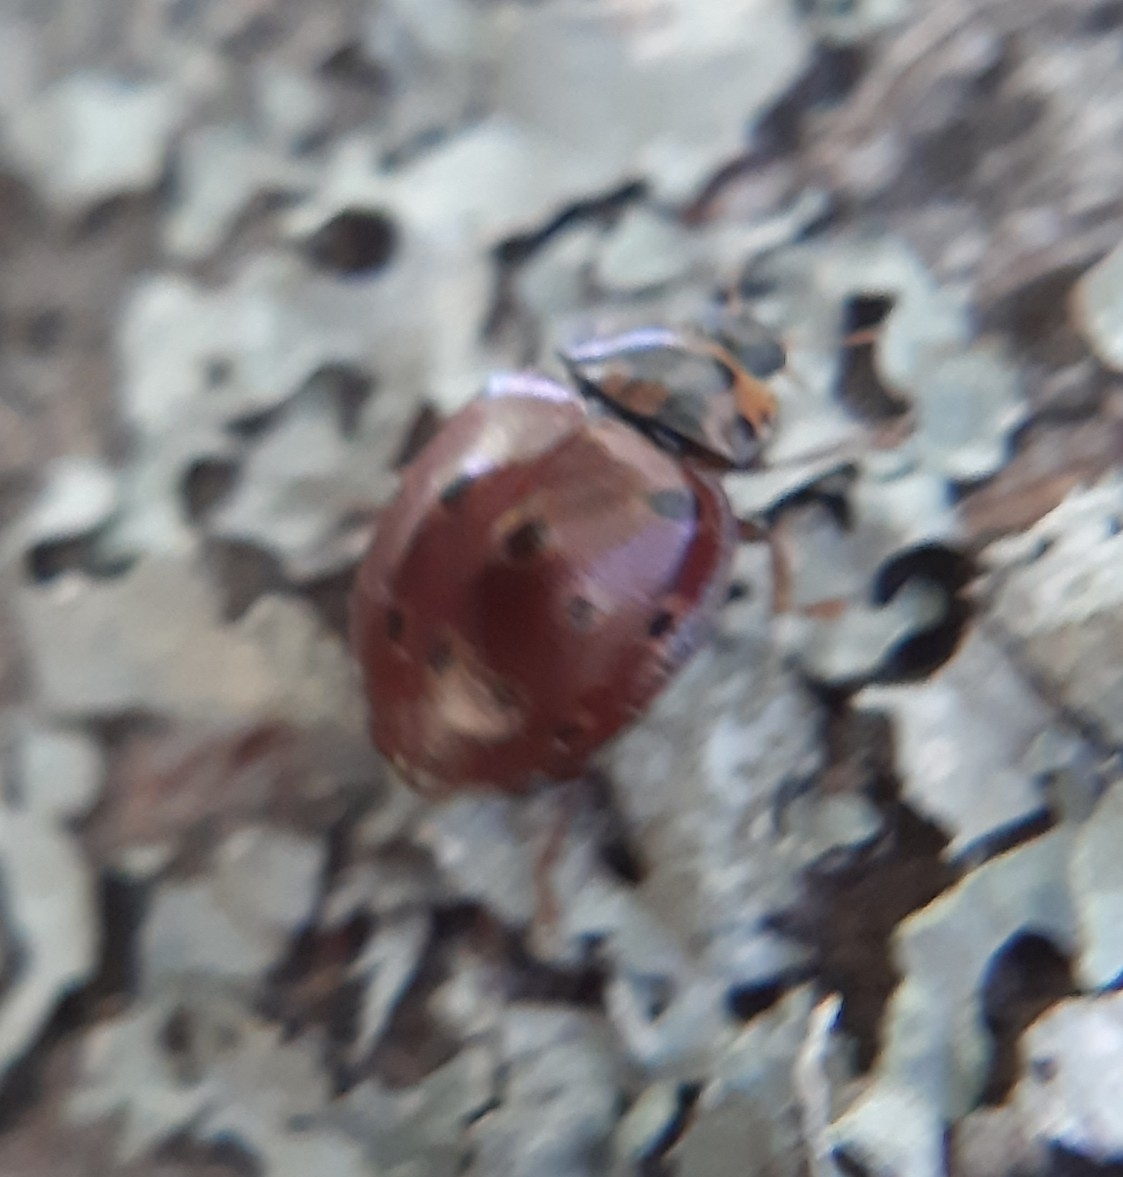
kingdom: Animalia
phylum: Arthropoda
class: Insecta
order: Coleoptera
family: Coccinellidae
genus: Anatis
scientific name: Anatis mali
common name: Eye-spotted lady beetle
